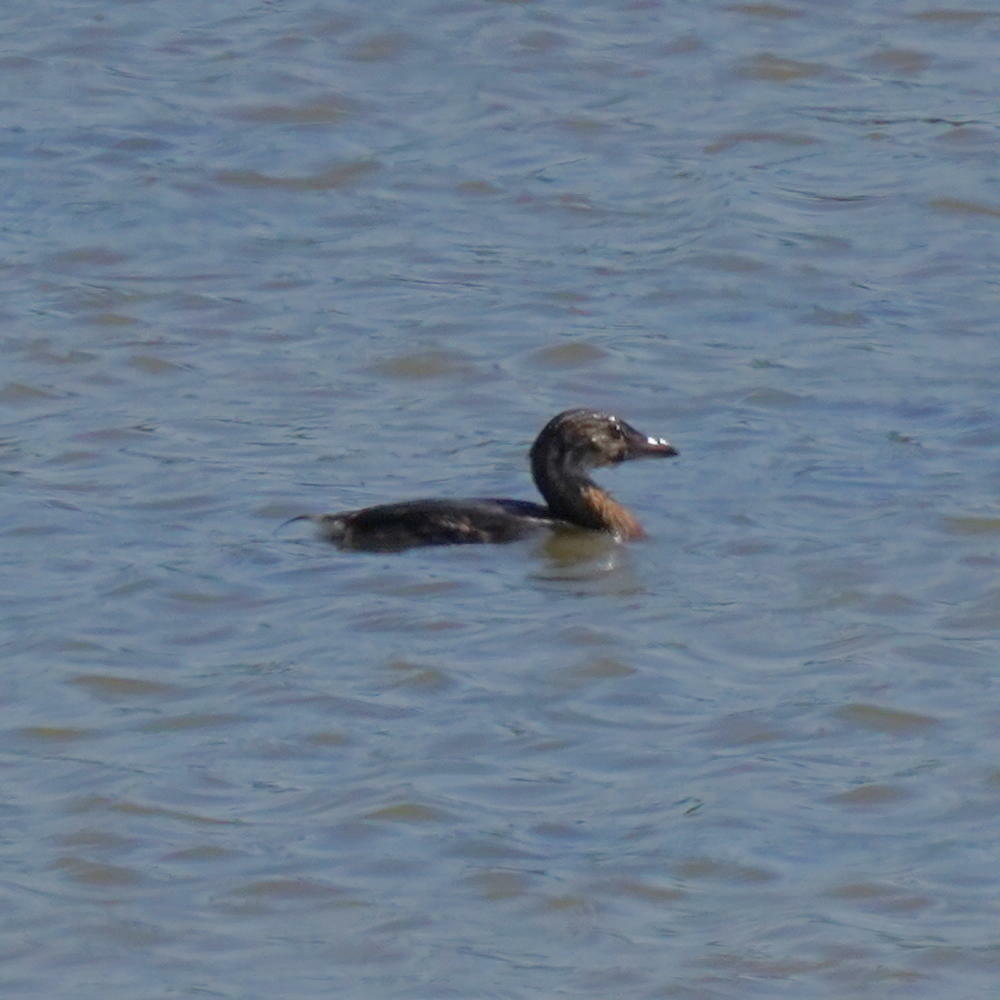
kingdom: Animalia
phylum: Chordata
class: Aves
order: Podicipediformes
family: Podicipedidae
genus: Podilymbus
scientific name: Podilymbus podiceps
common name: Pied-billed grebe
